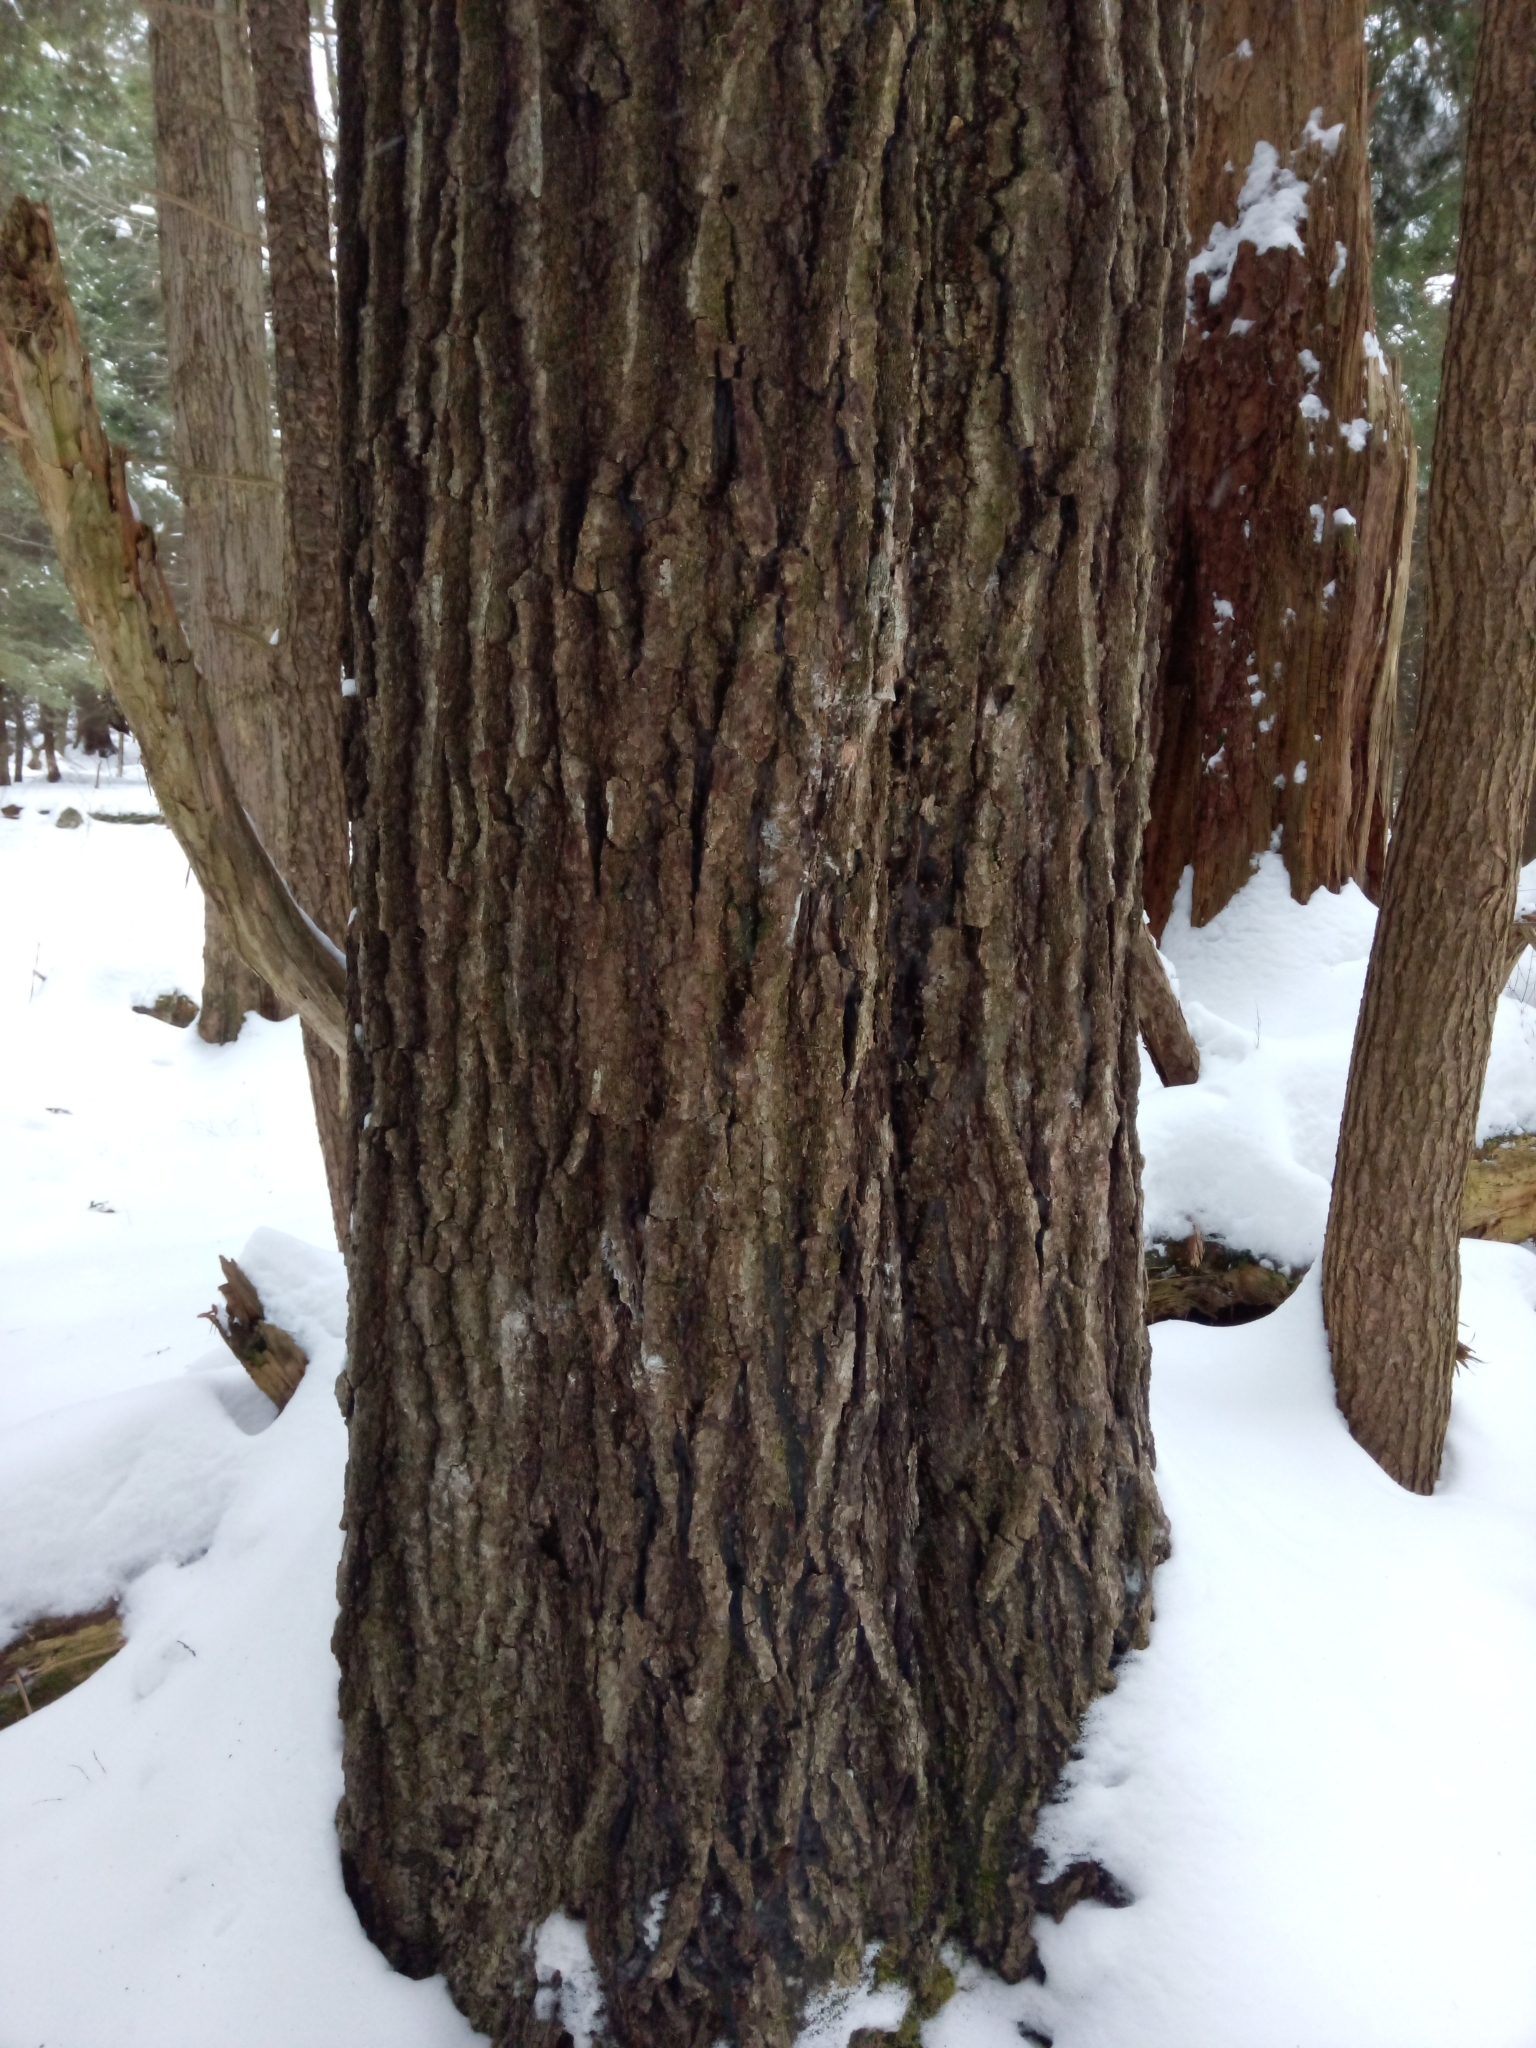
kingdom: Plantae
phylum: Tracheophyta
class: Magnoliopsida
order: Fagales
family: Fagaceae
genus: Quercus
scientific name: Quercus rubra
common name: Red oak
